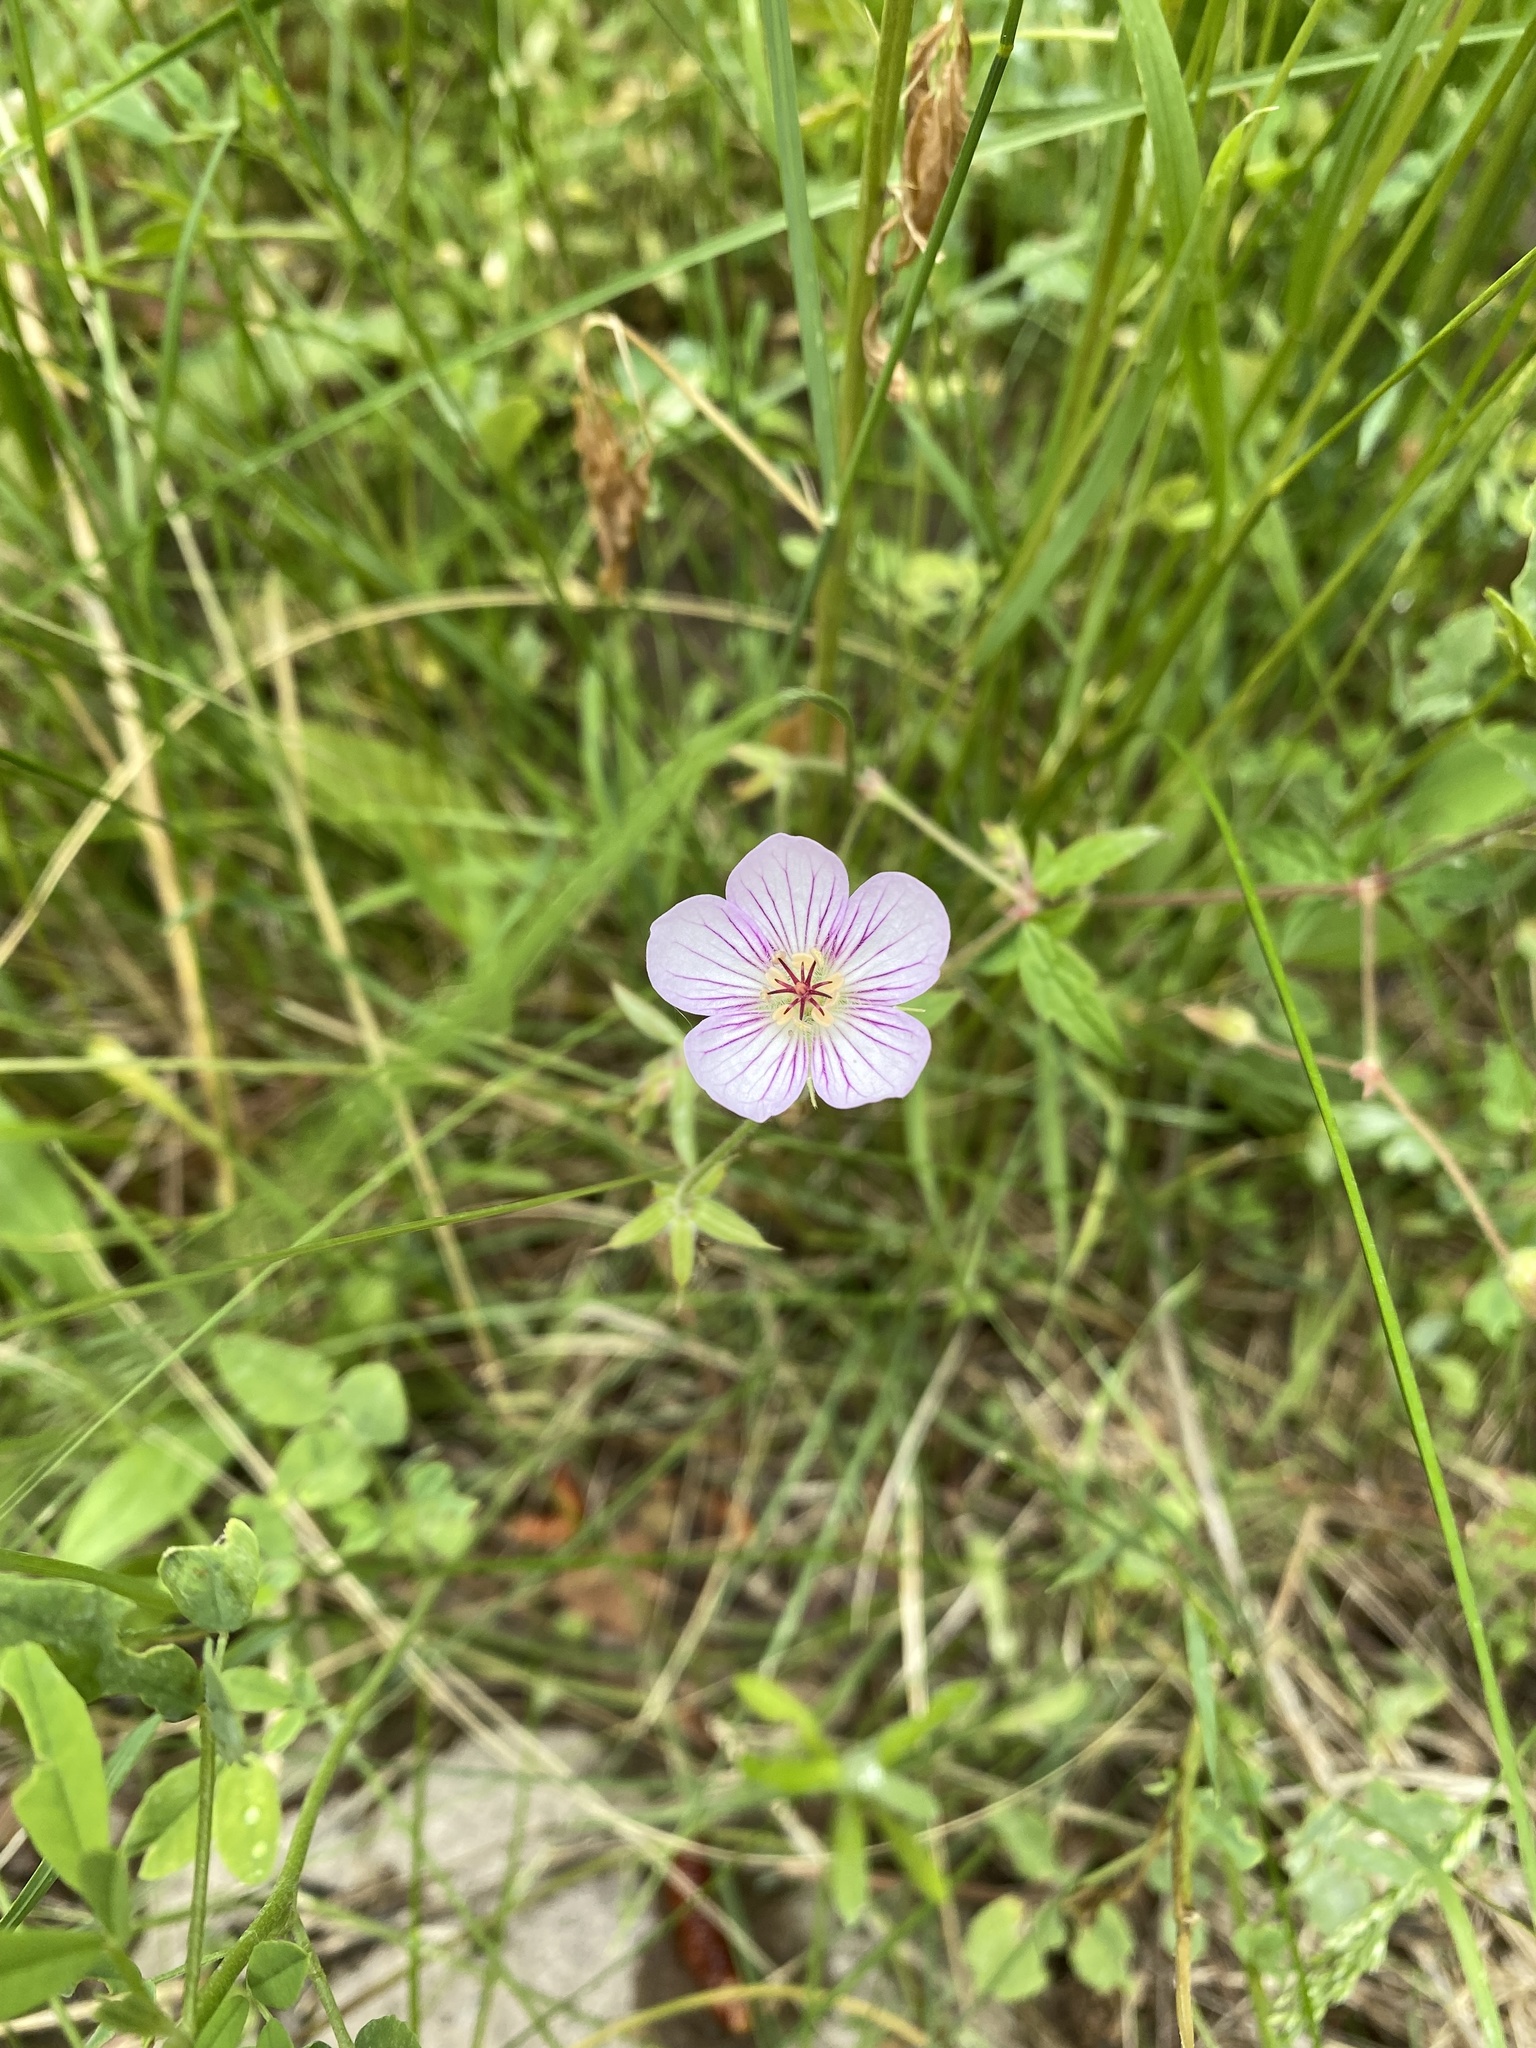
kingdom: Plantae
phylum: Tracheophyta
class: Magnoliopsida
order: Geraniales
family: Geraniaceae
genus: Geranium
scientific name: Geranium richardsonii
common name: Richardson's crane's-bill
